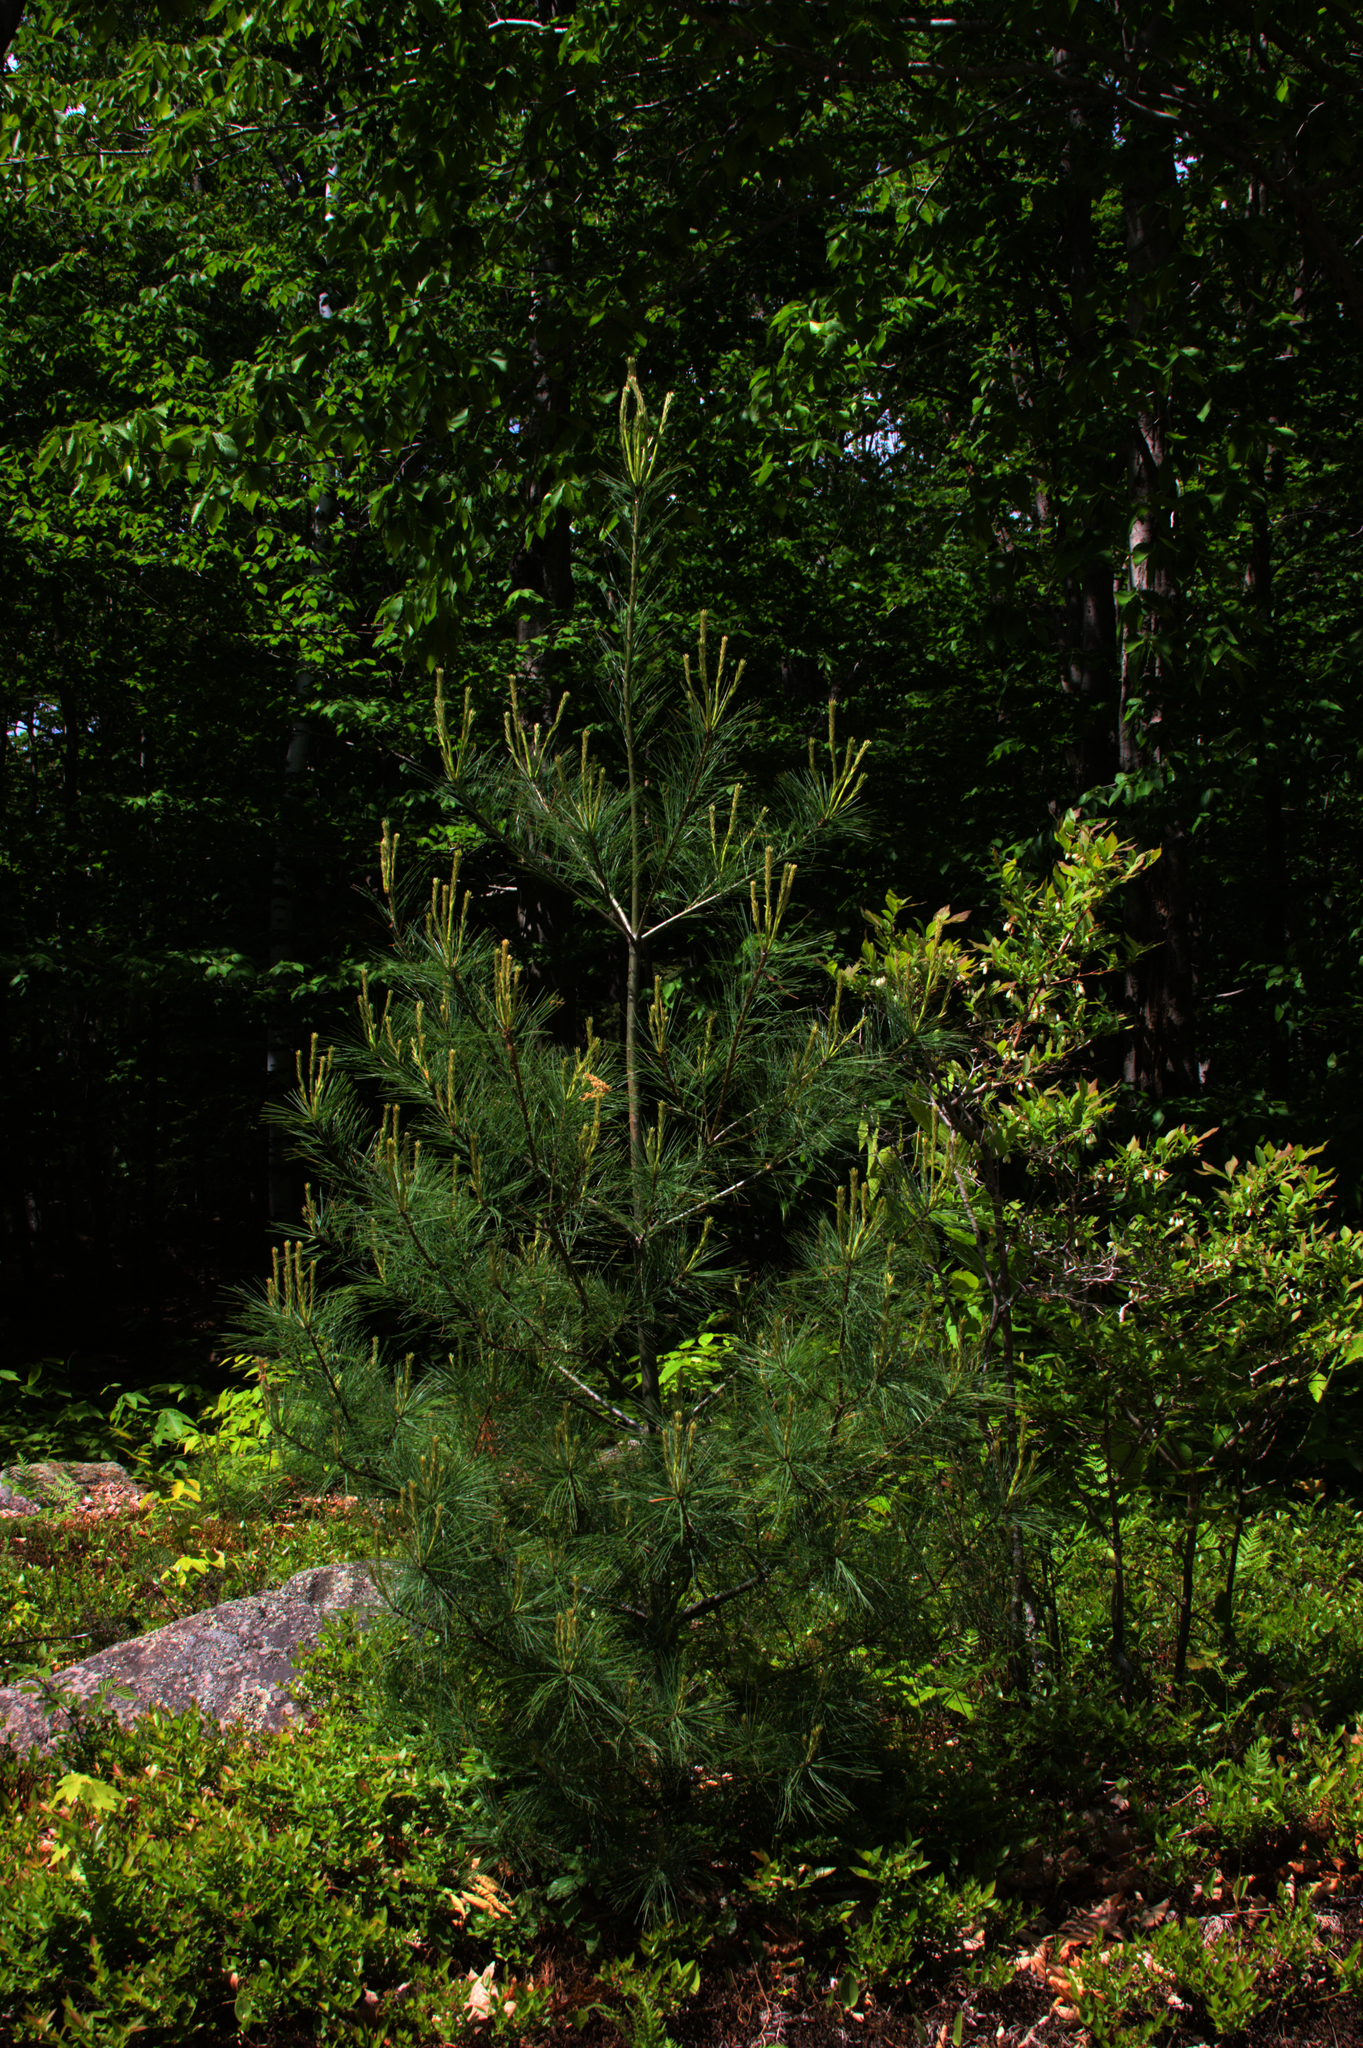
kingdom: Plantae
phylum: Tracheophyta
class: Pinopsida
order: Pinales
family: Pinaceae
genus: Pinus
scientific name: Pinus strobus
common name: Weymouth pine
